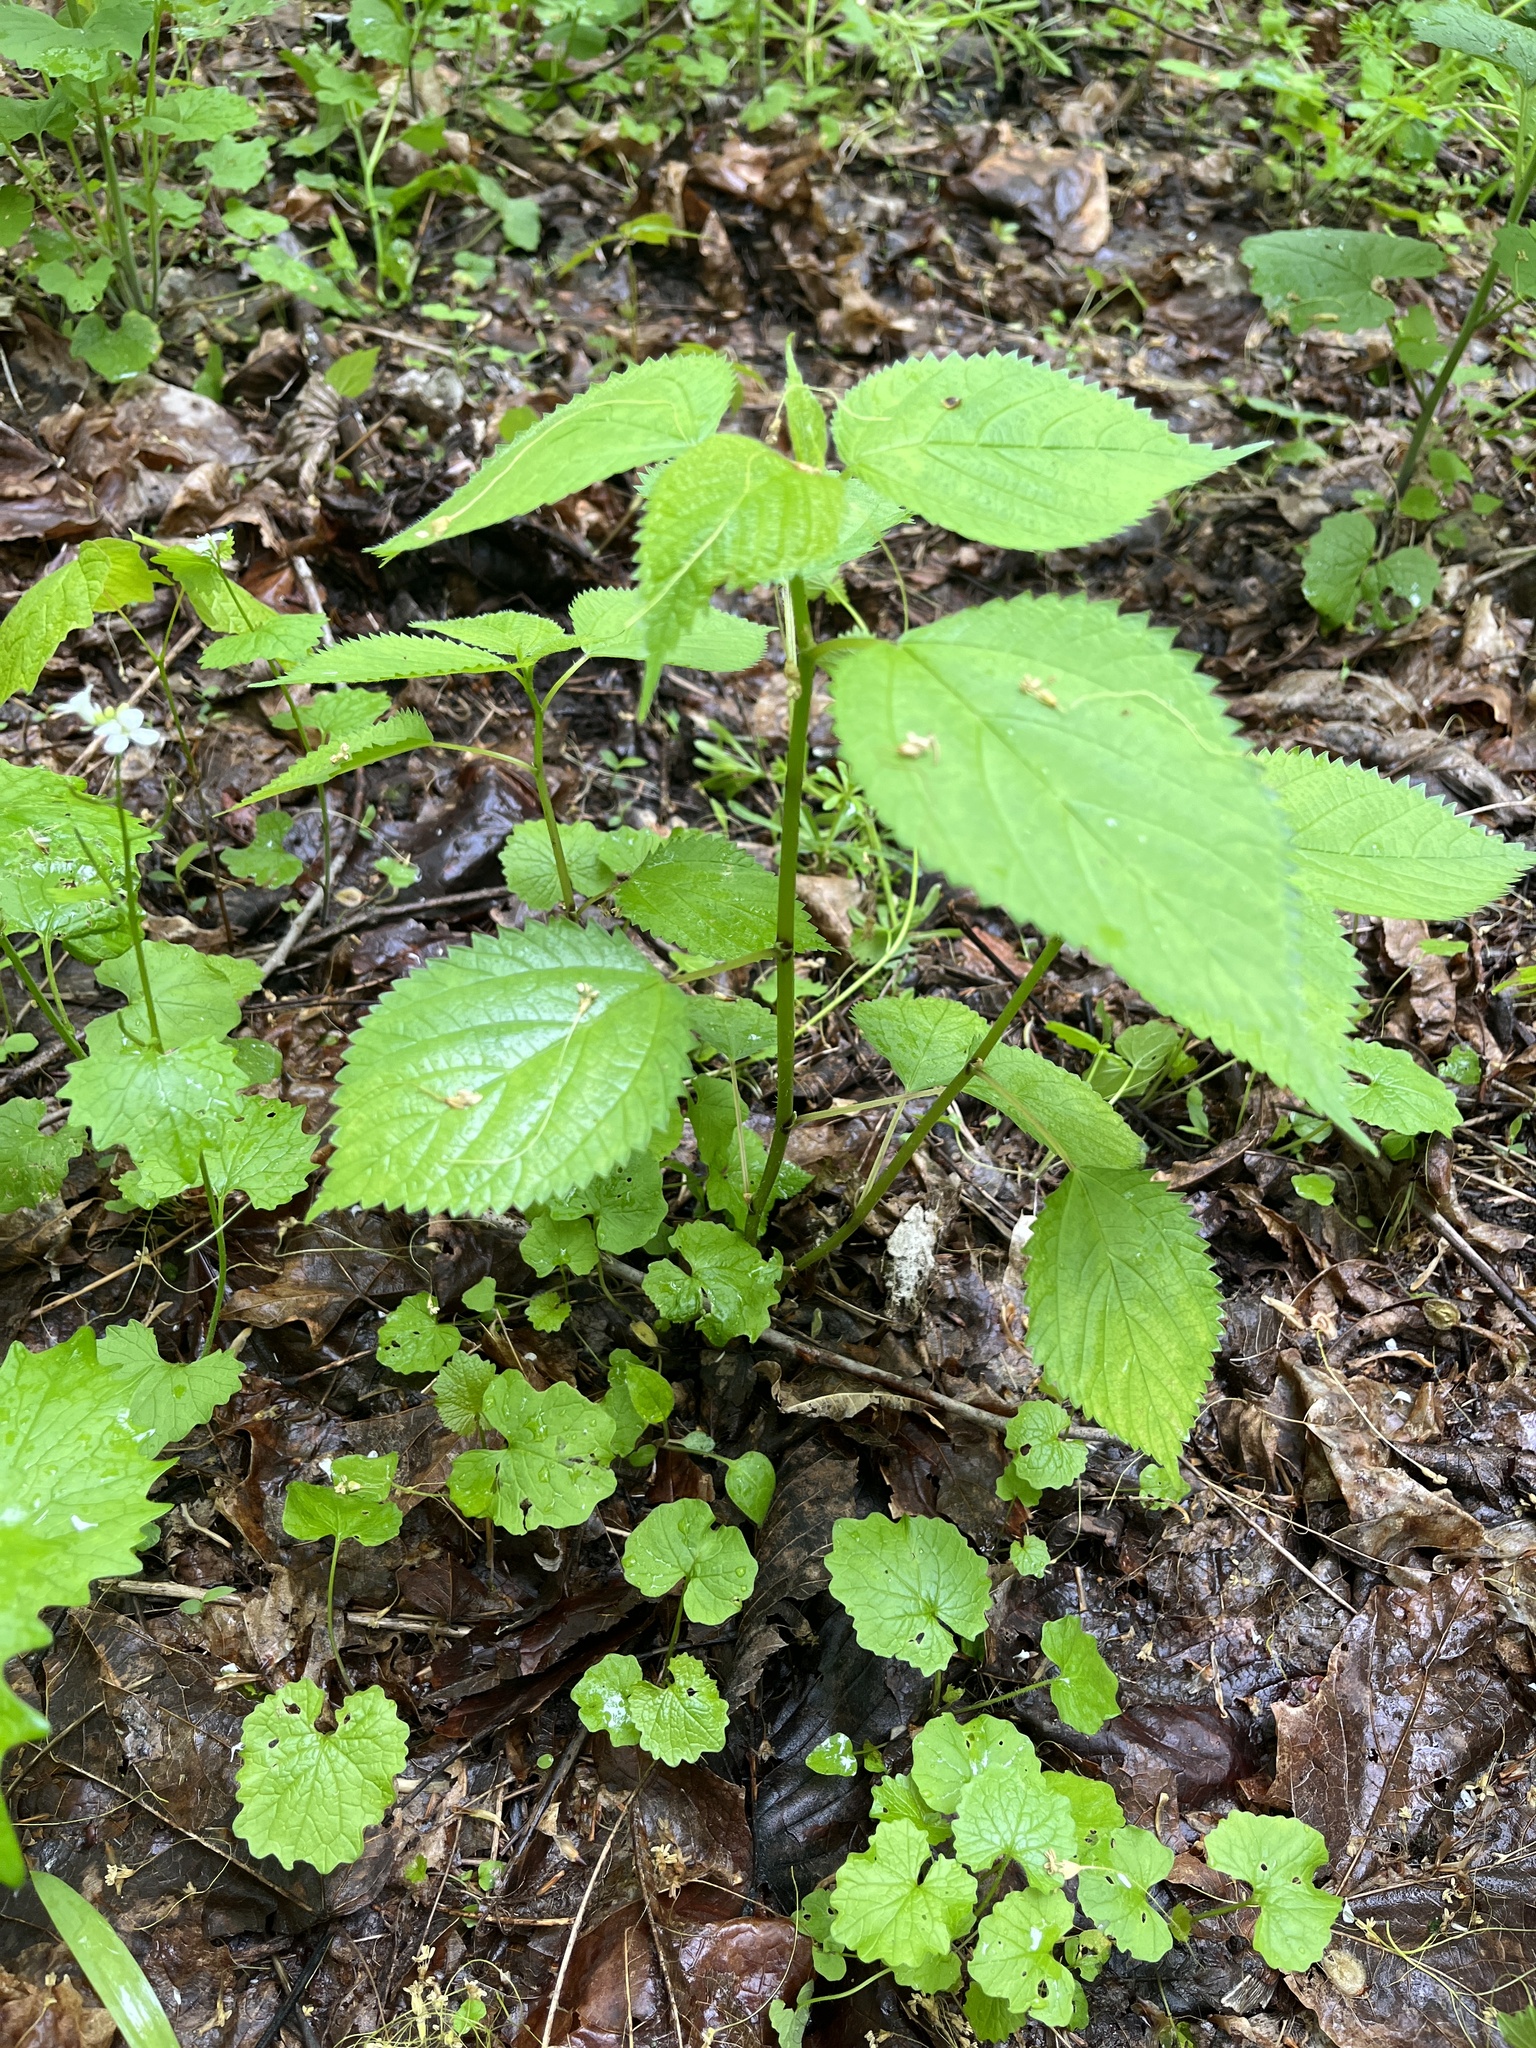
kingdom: Plantae
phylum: Tracheophyta
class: Magnoliopsida
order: Rosales
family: Urticaceae
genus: Laportea
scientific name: Laportea canadensis
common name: Canada nettle
